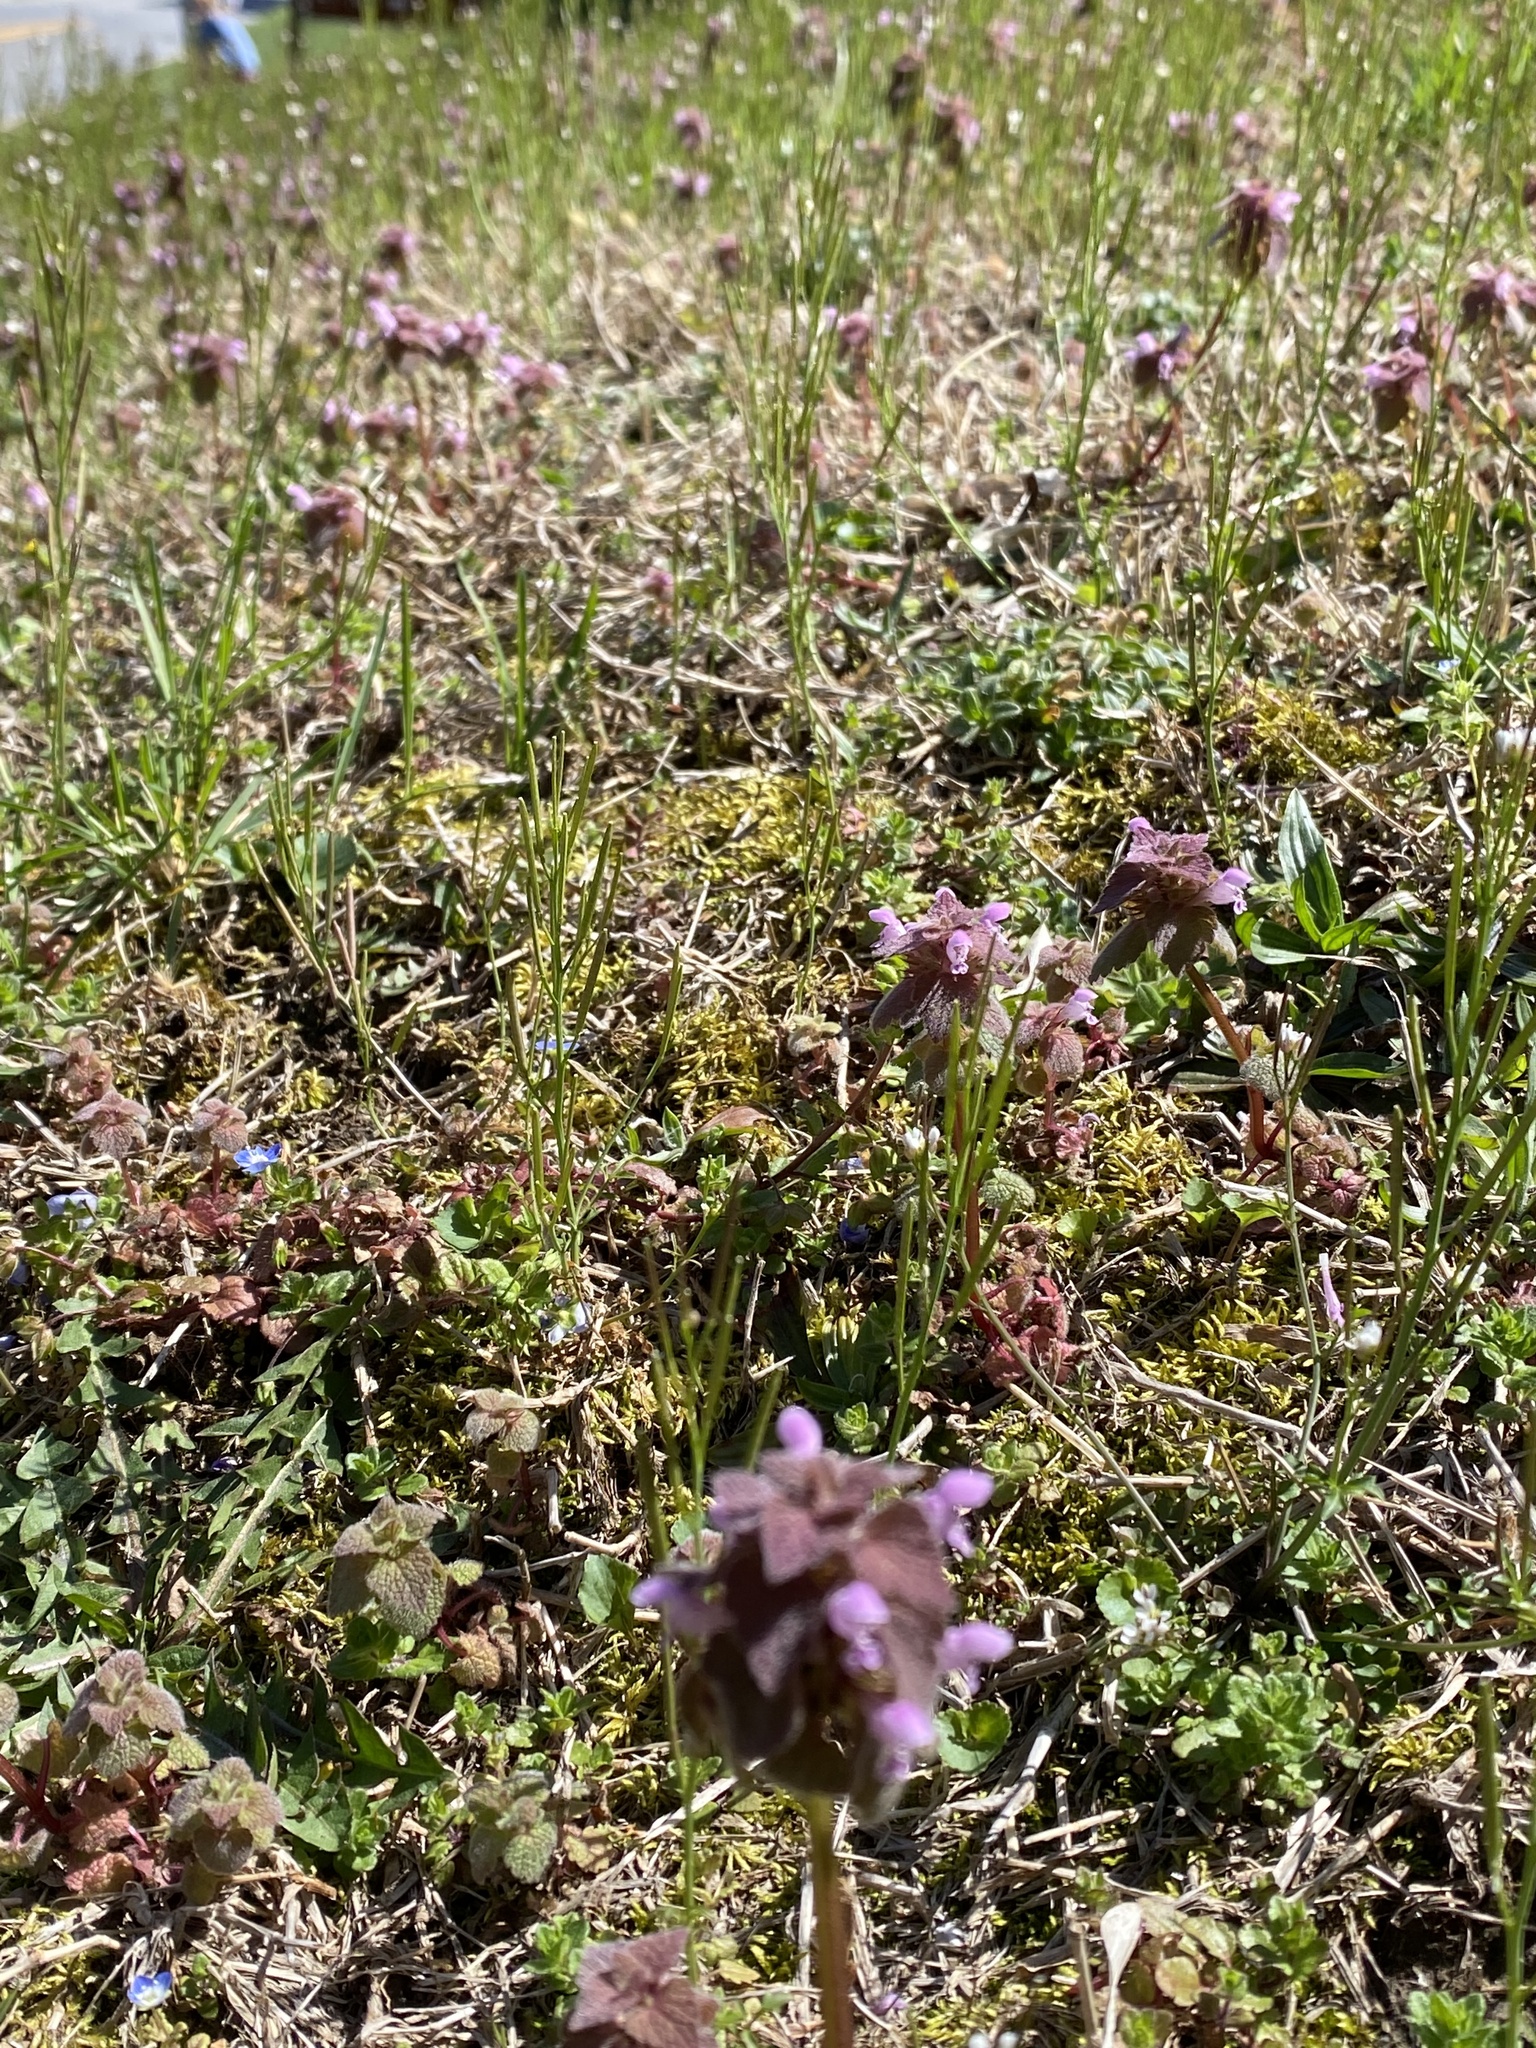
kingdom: Plantae
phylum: Tracheophyta
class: Magnoliopsida
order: Lamiales
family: Lamiaceae
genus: Lamium
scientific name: Lamium purpureum
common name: Red dead-nettle
